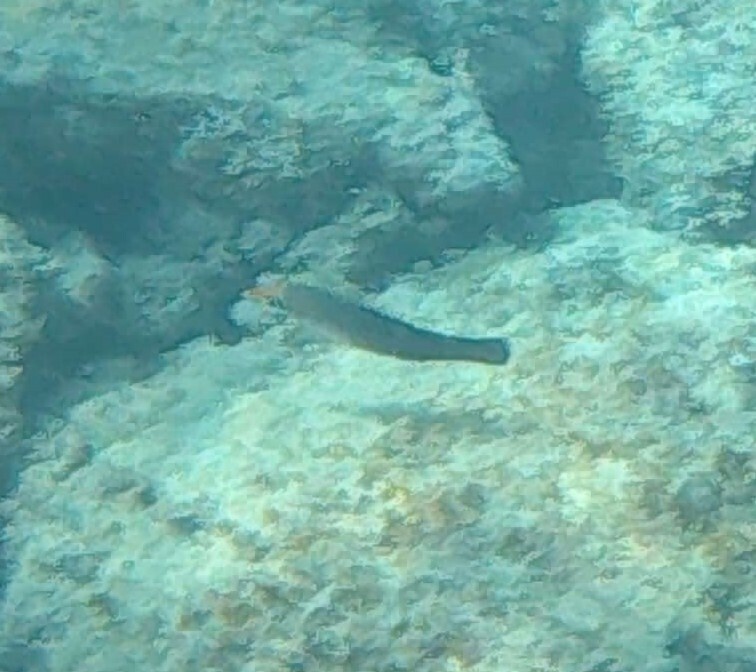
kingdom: Animalia
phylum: Chordata
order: Perciformes
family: Labridae
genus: Gomphosus
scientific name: Gomphosus varius
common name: Bird wrasse
